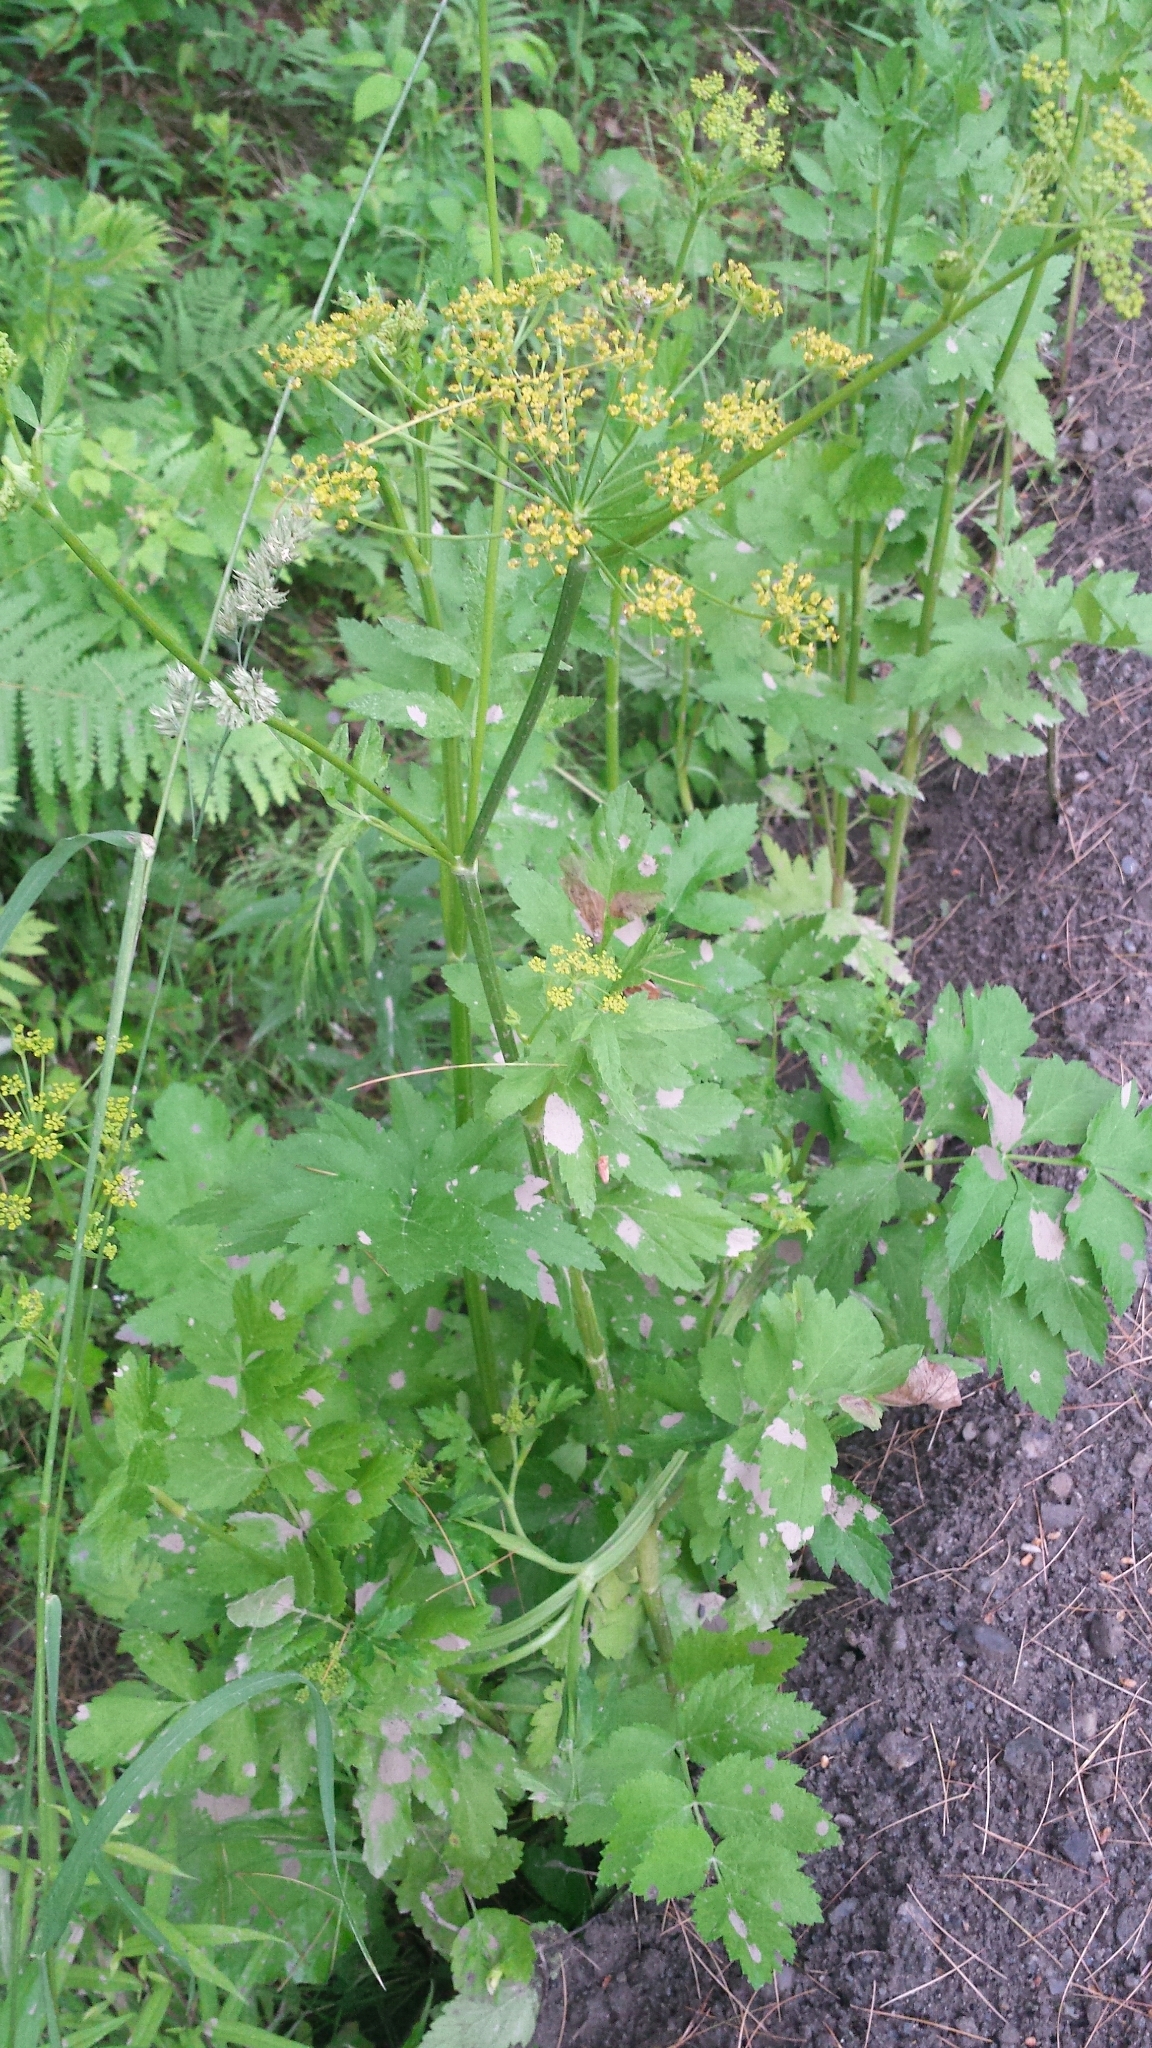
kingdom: Plantae
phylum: Tracheophyta
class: Magnoliopsida
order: Apiales
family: Apiaceae
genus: Pastinaca
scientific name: Pastinaca sativa
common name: Wild parsnip
